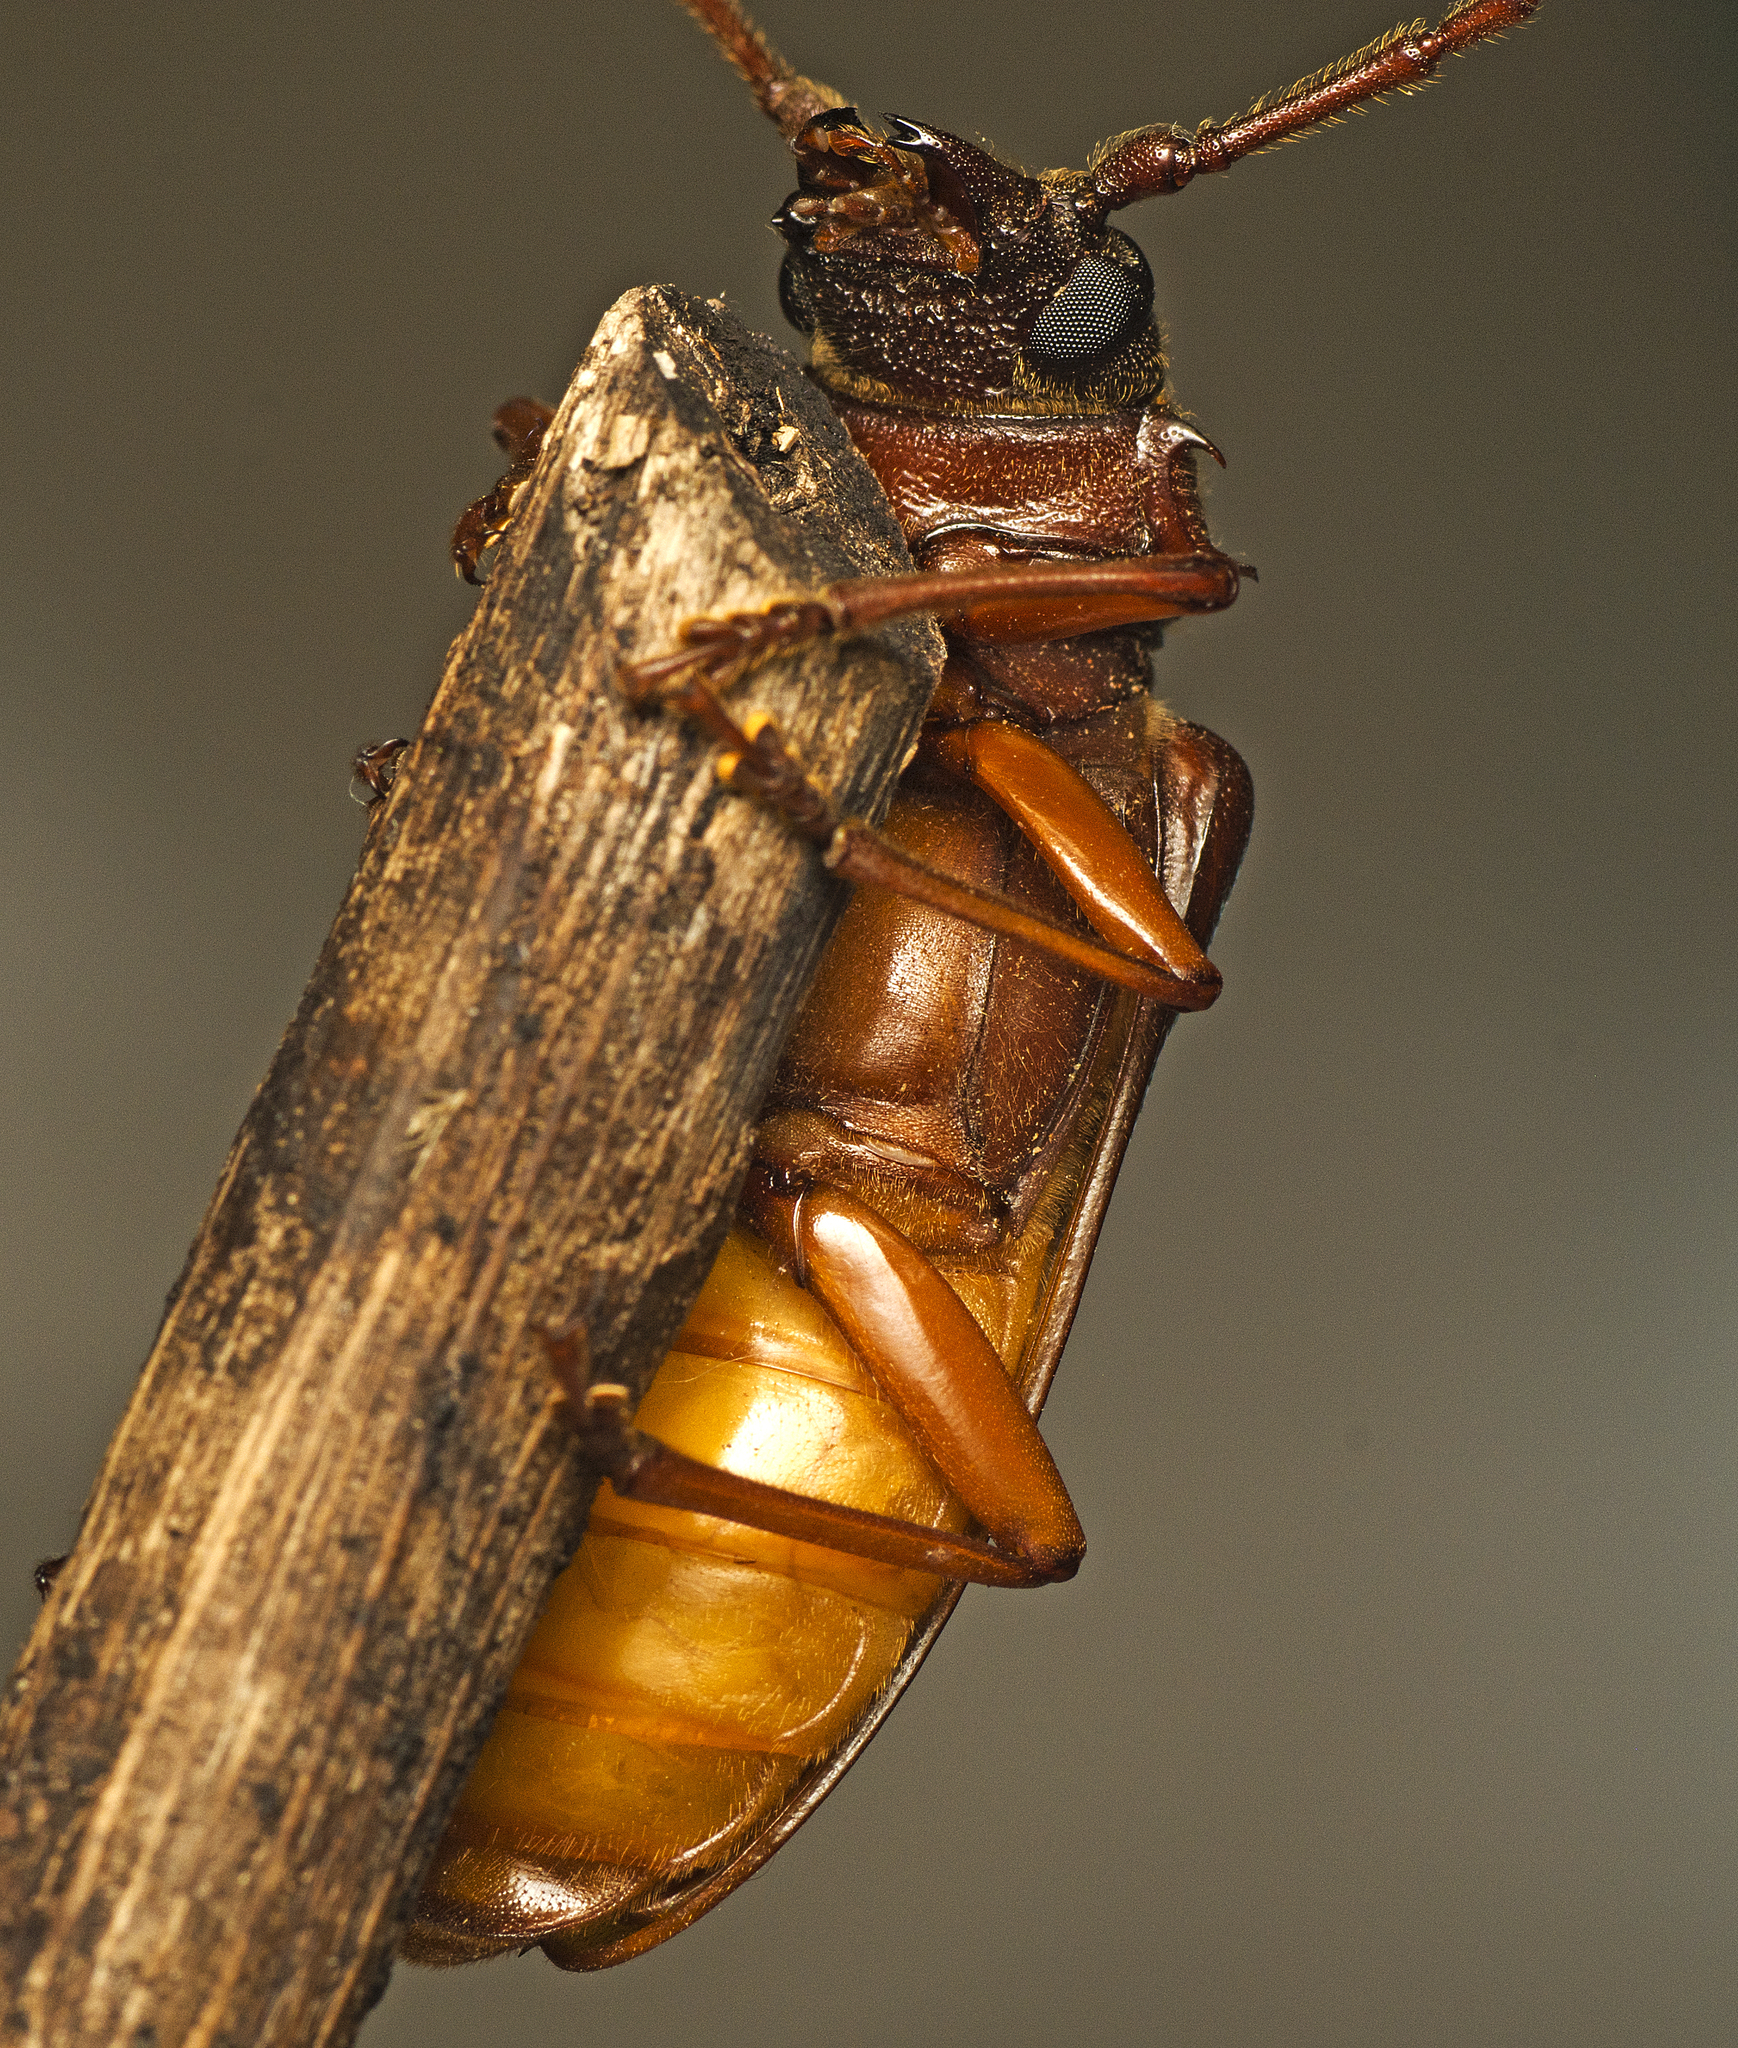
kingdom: Animalia
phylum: Arthropoda
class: Insecta
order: Coleoptera
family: Cerambycidae
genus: Cacodacnus
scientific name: Cacodacnus planicollis
